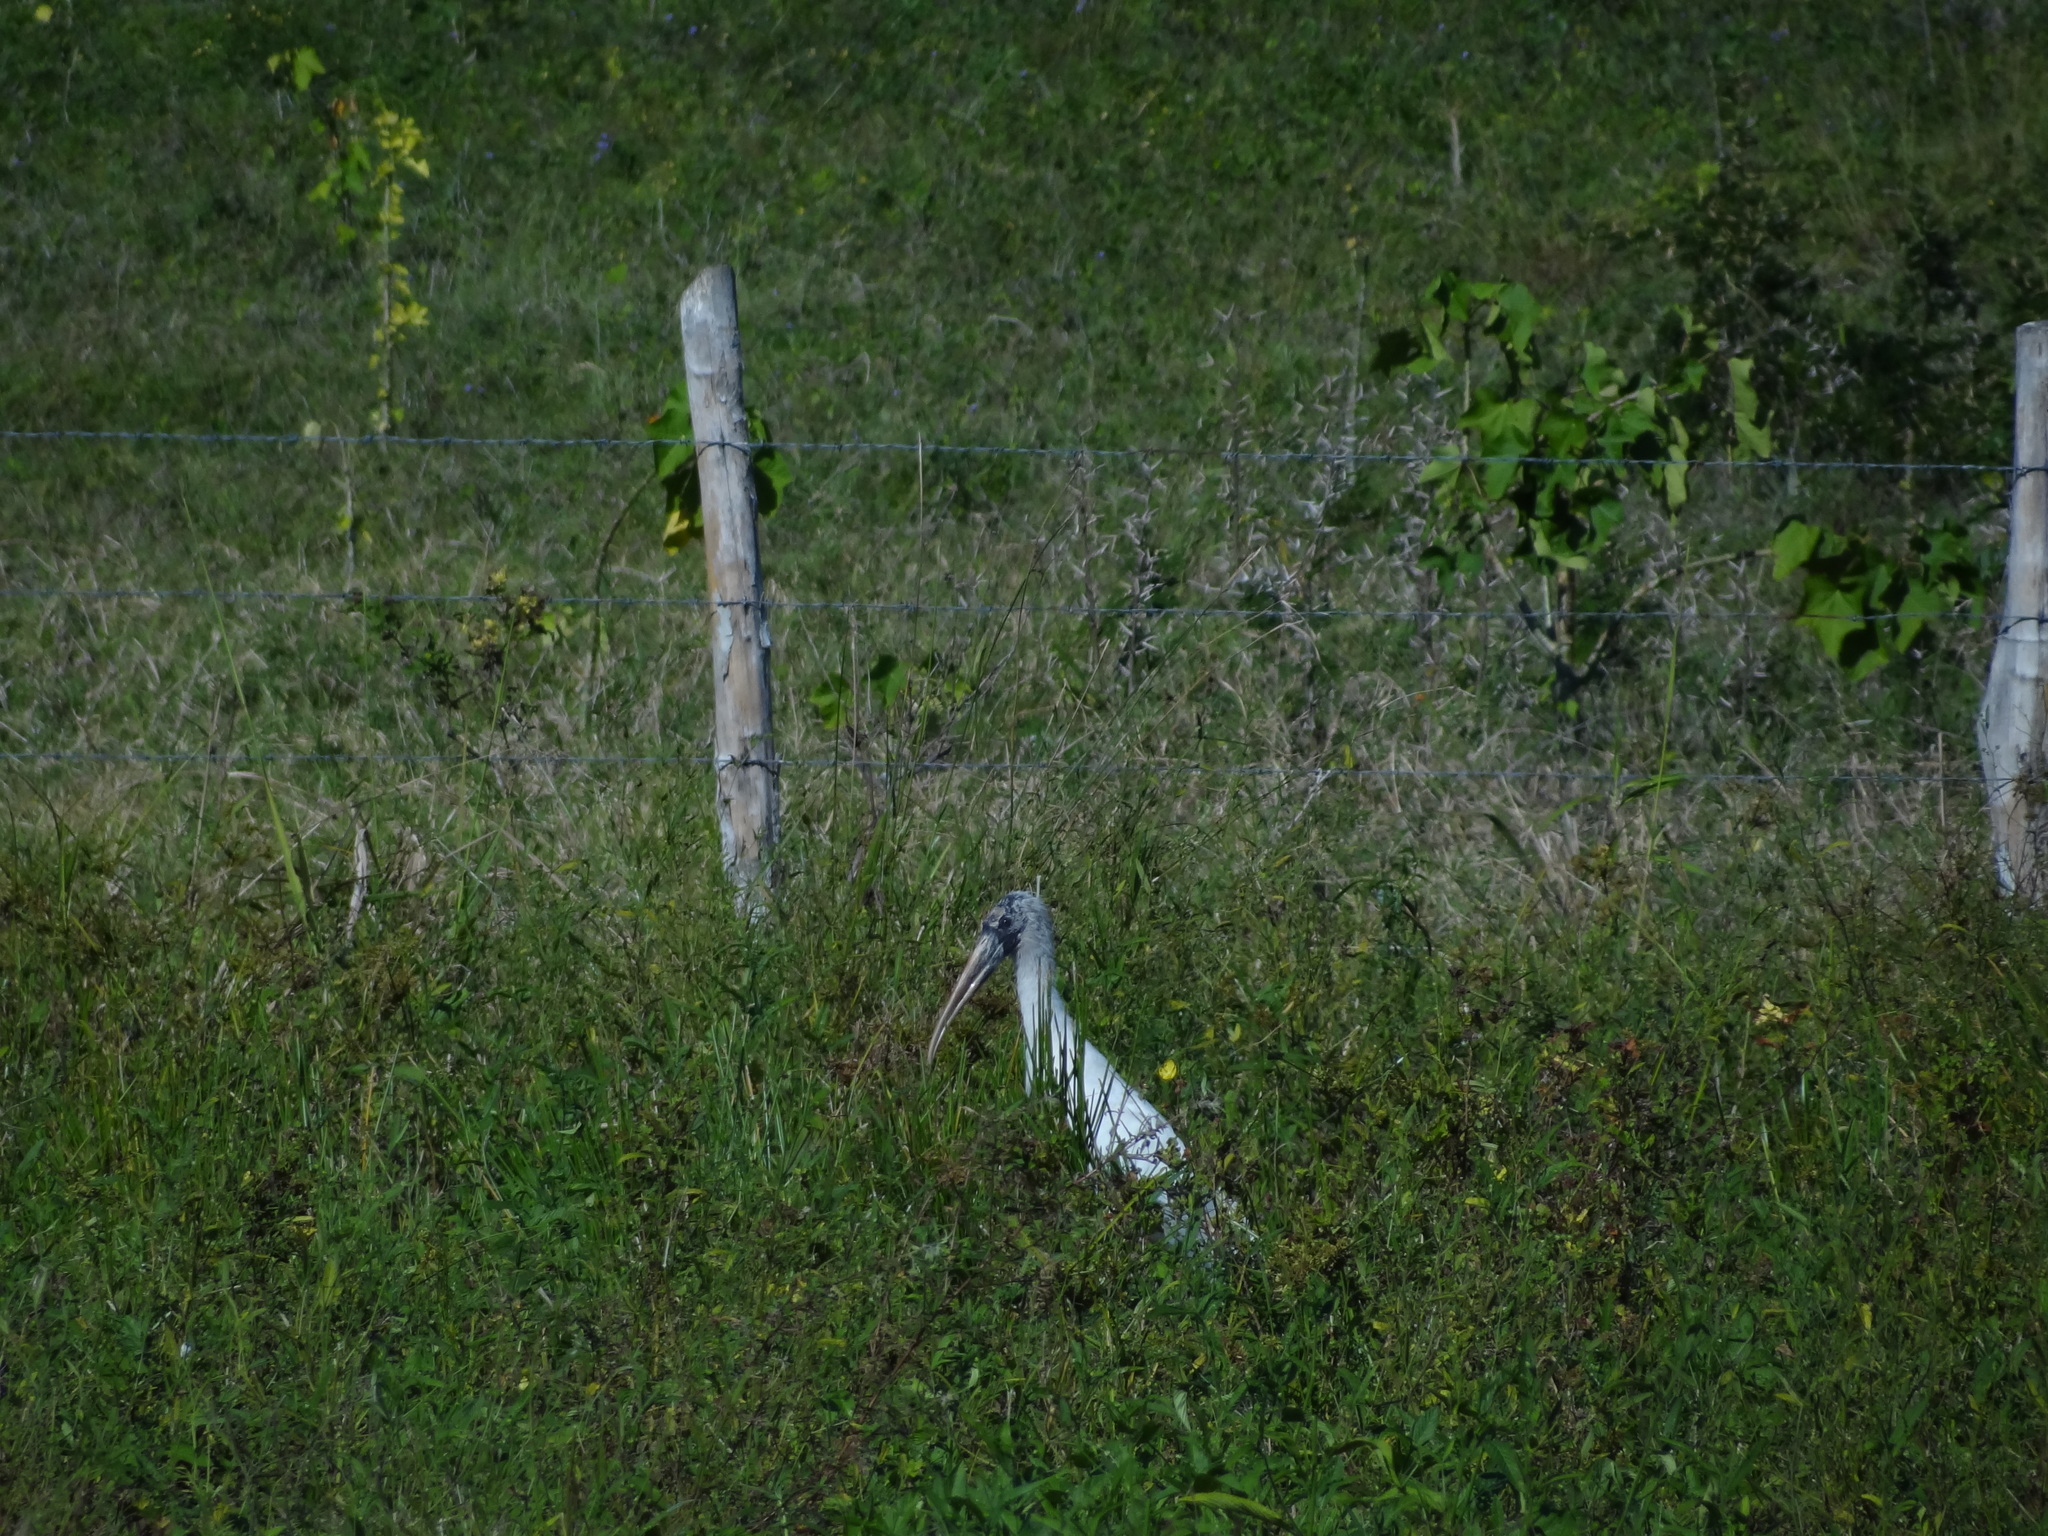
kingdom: Animalia
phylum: Chordata
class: Aves
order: Ciconiiformes
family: Ciconiidae
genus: Mycteria
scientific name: Mycteria americana
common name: Wood stork
